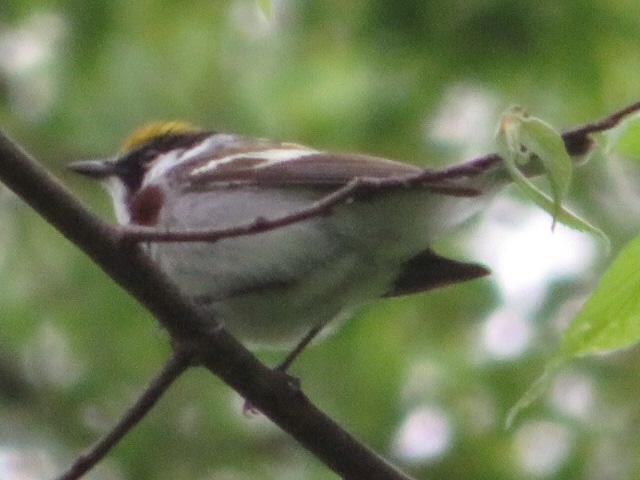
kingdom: Animalia
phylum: Chordata
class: Aves
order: Passeriformes
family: Parulidae
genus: Setophaga
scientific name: Setophaga pensylvanica
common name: Chestnut-sided warbler
